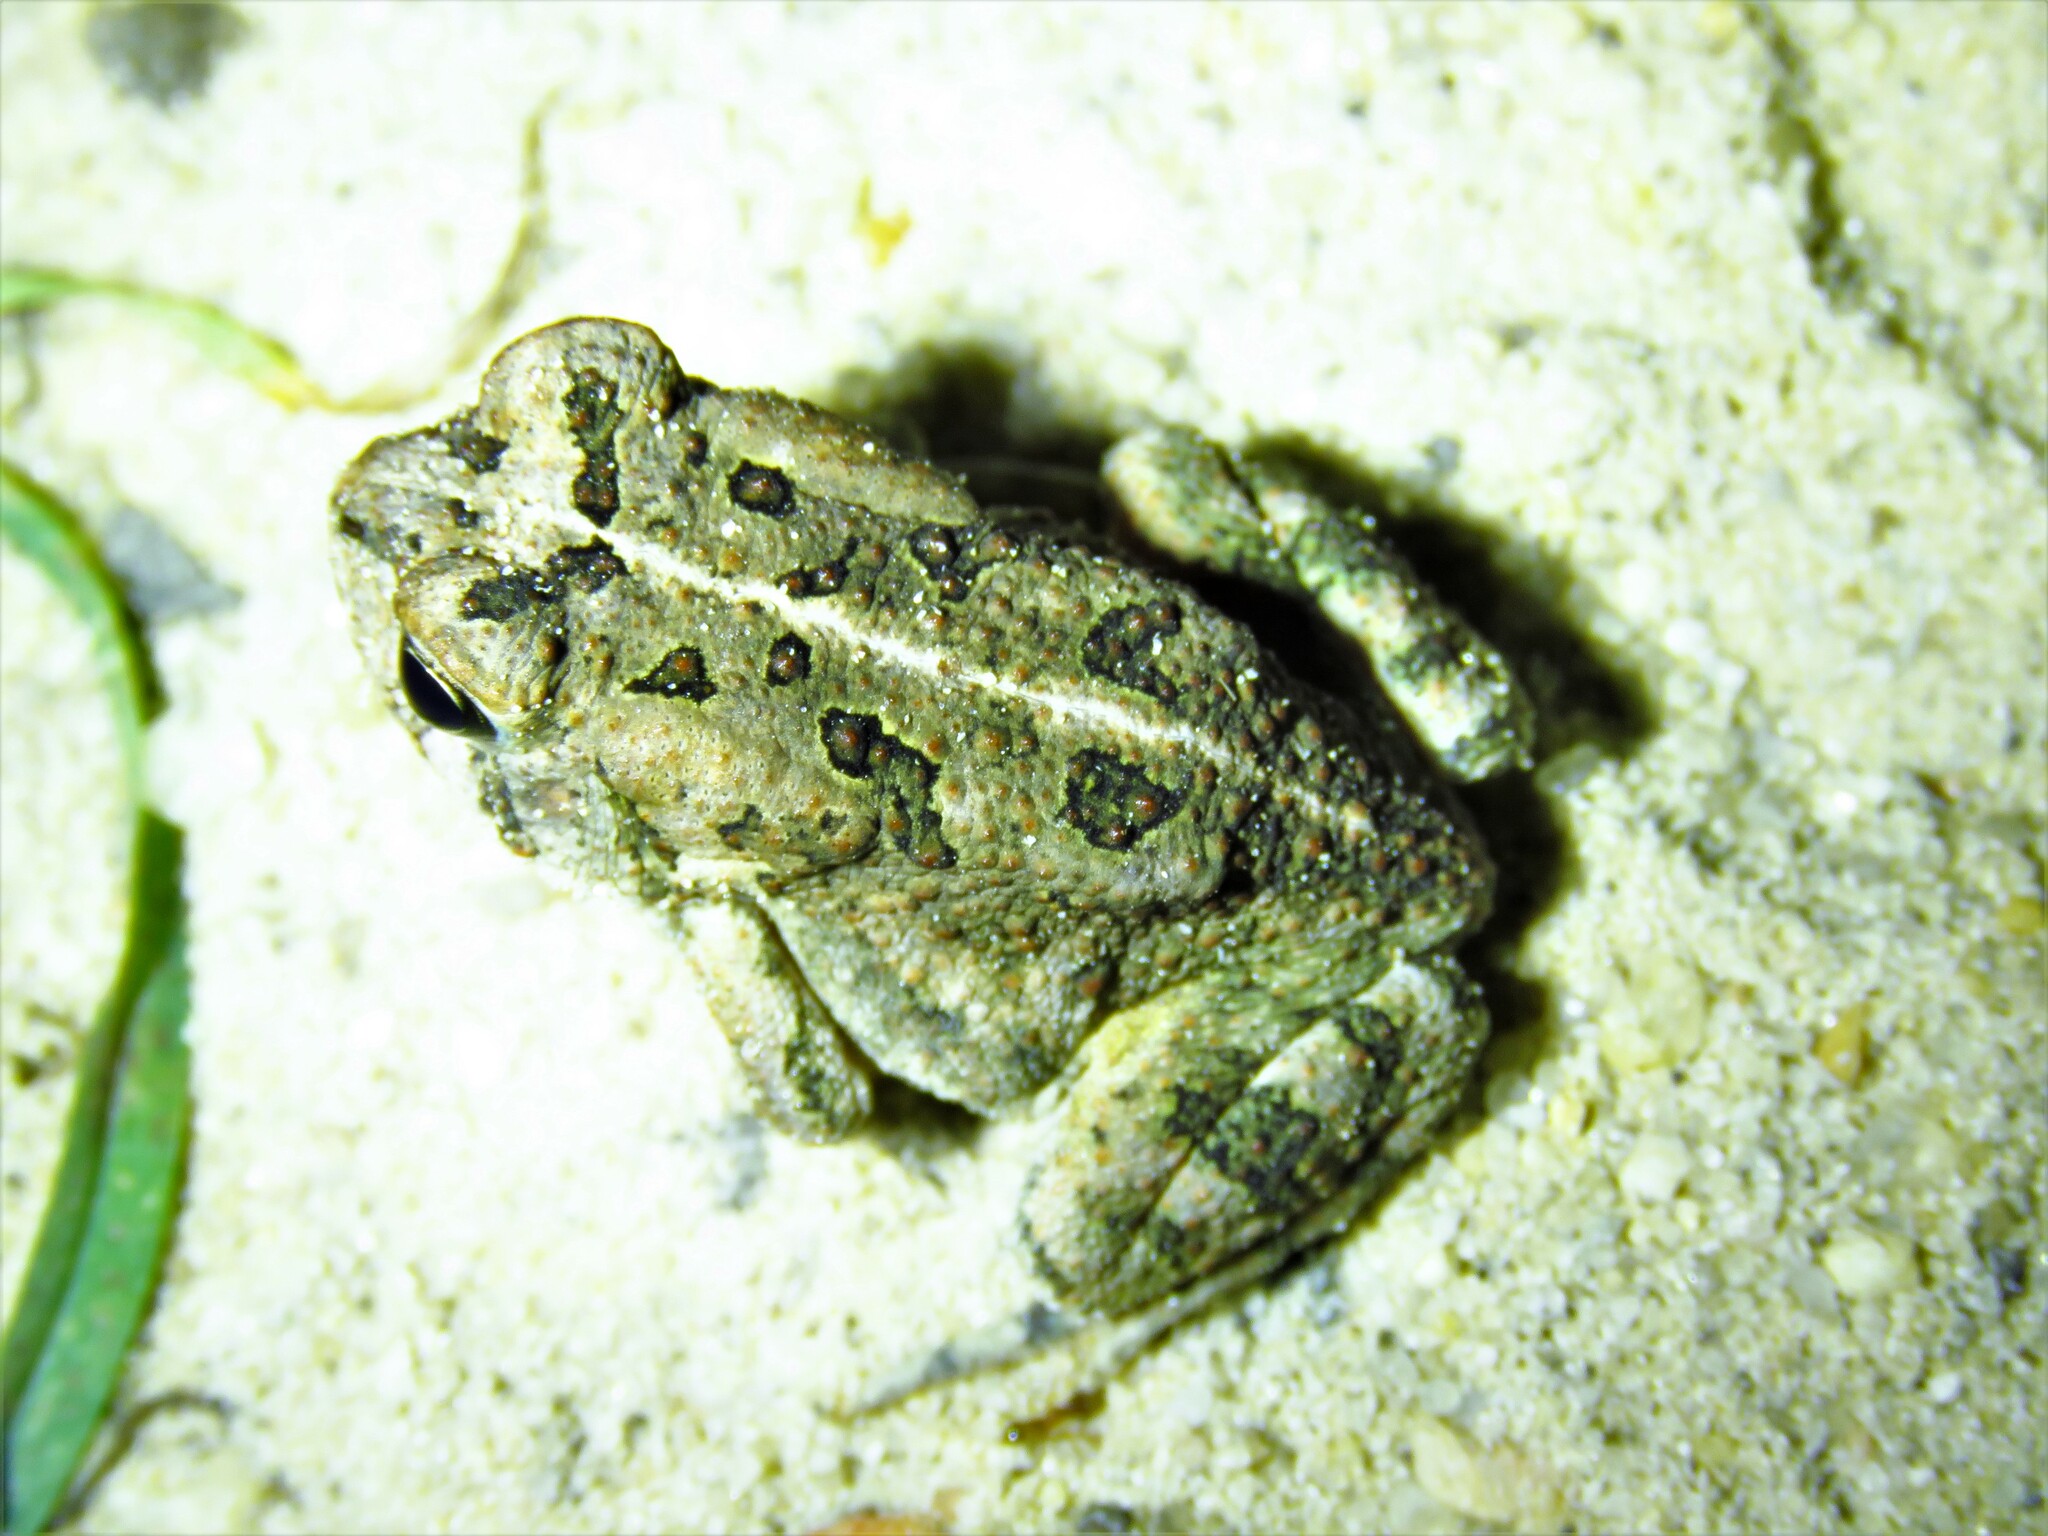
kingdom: Animalia
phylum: Chordata
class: Amphibia
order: Anura
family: Bufonidae
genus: Anaxyrus
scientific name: Anaxyrus fowleri
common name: Fowler's toad
